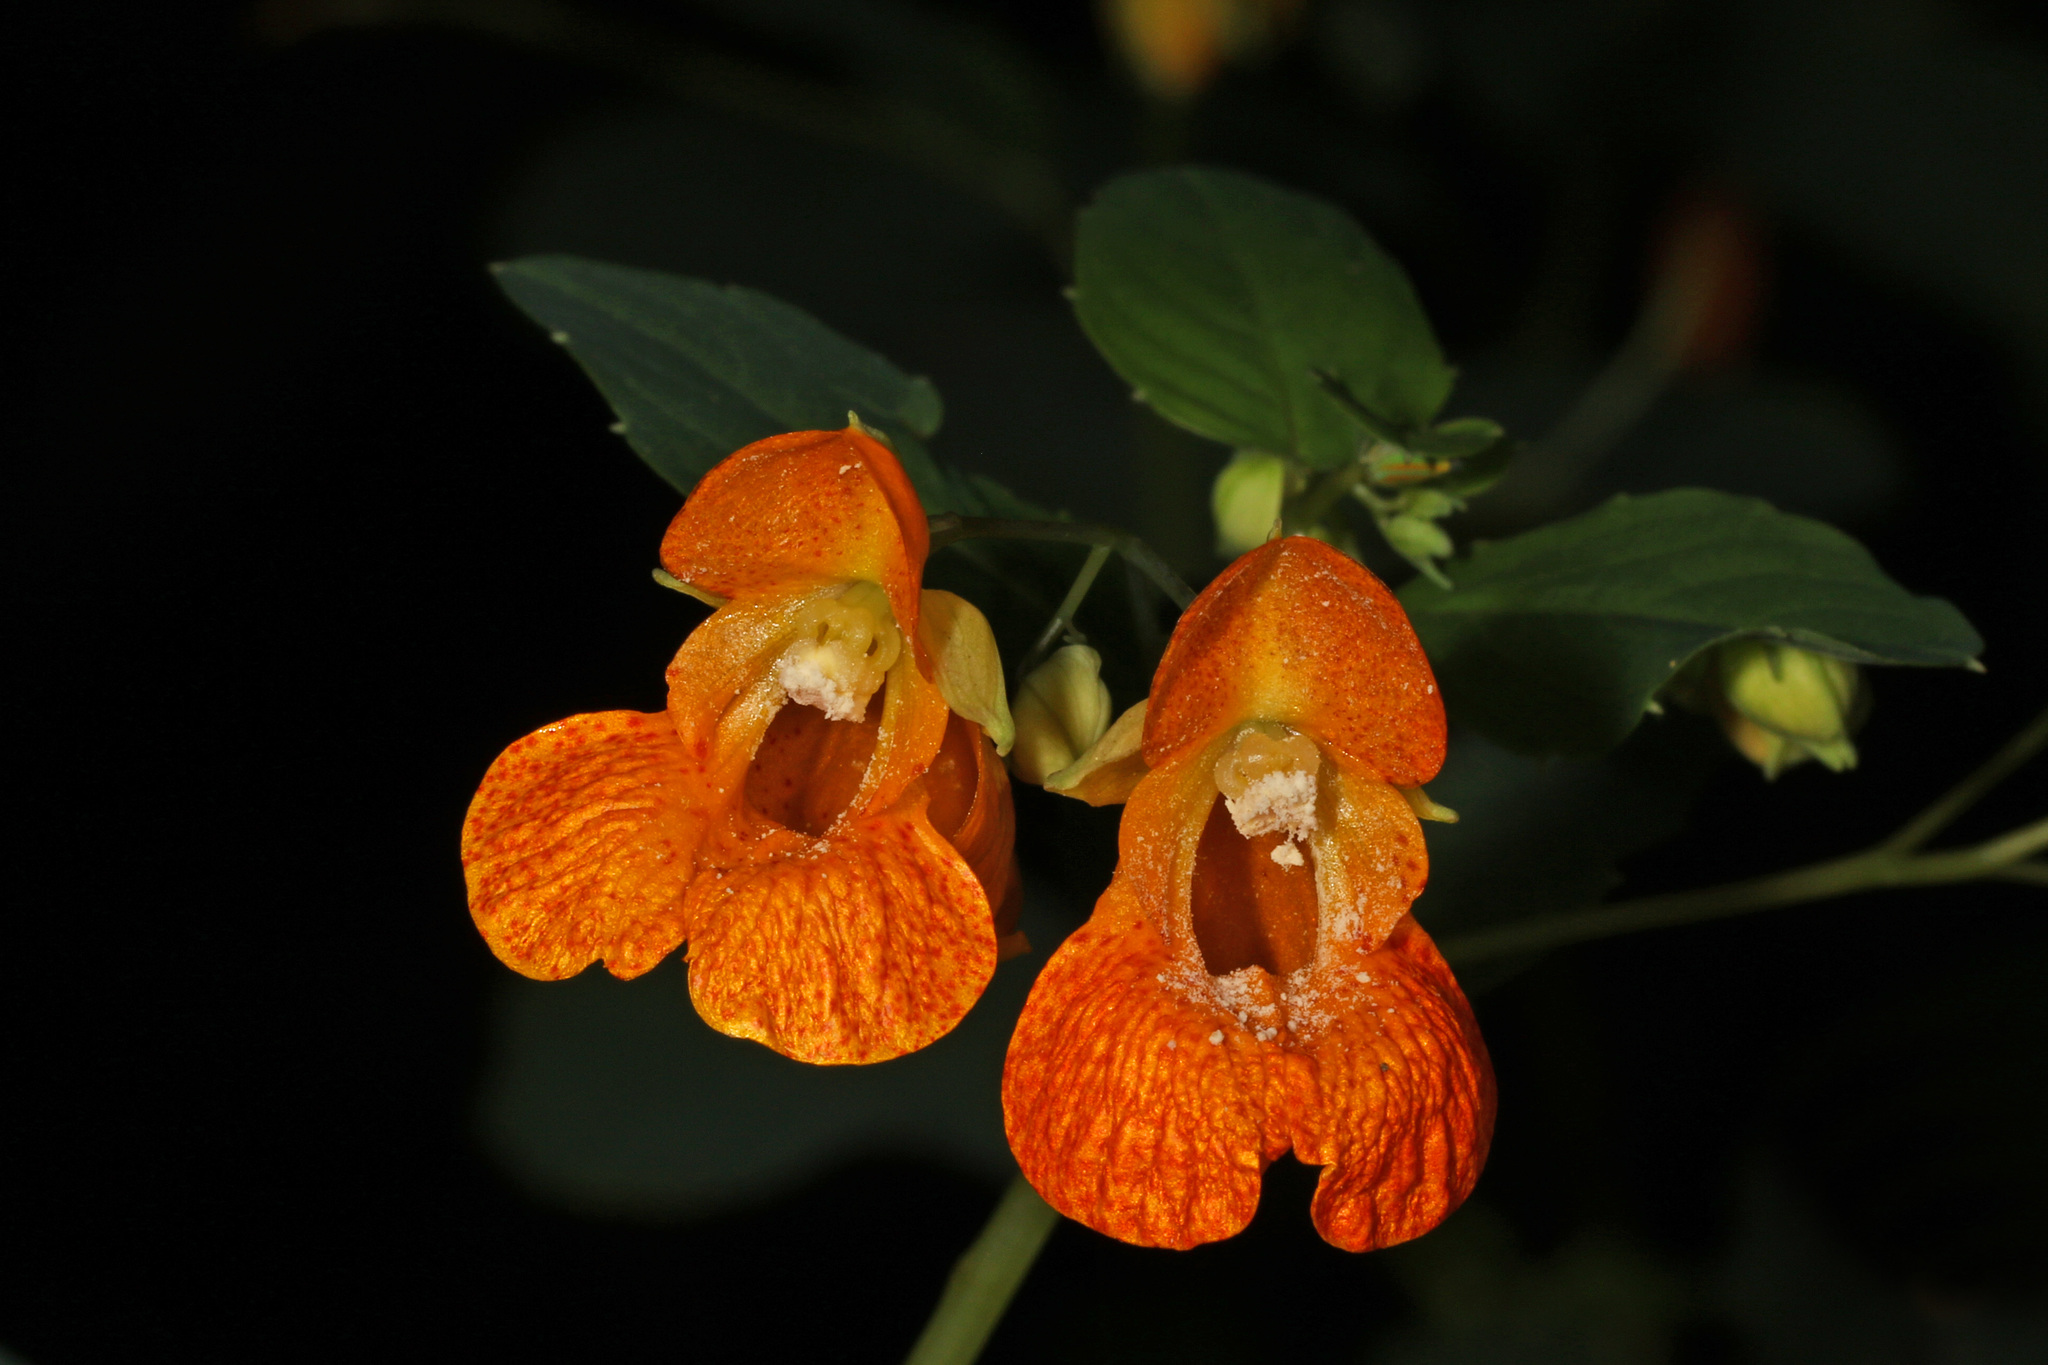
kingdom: Plantae
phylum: Tracheophyta
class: Magnoliopsida
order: Ericales
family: Balsaminaceae
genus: Impatiens
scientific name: Impatiens capensis
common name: Orange balsam
